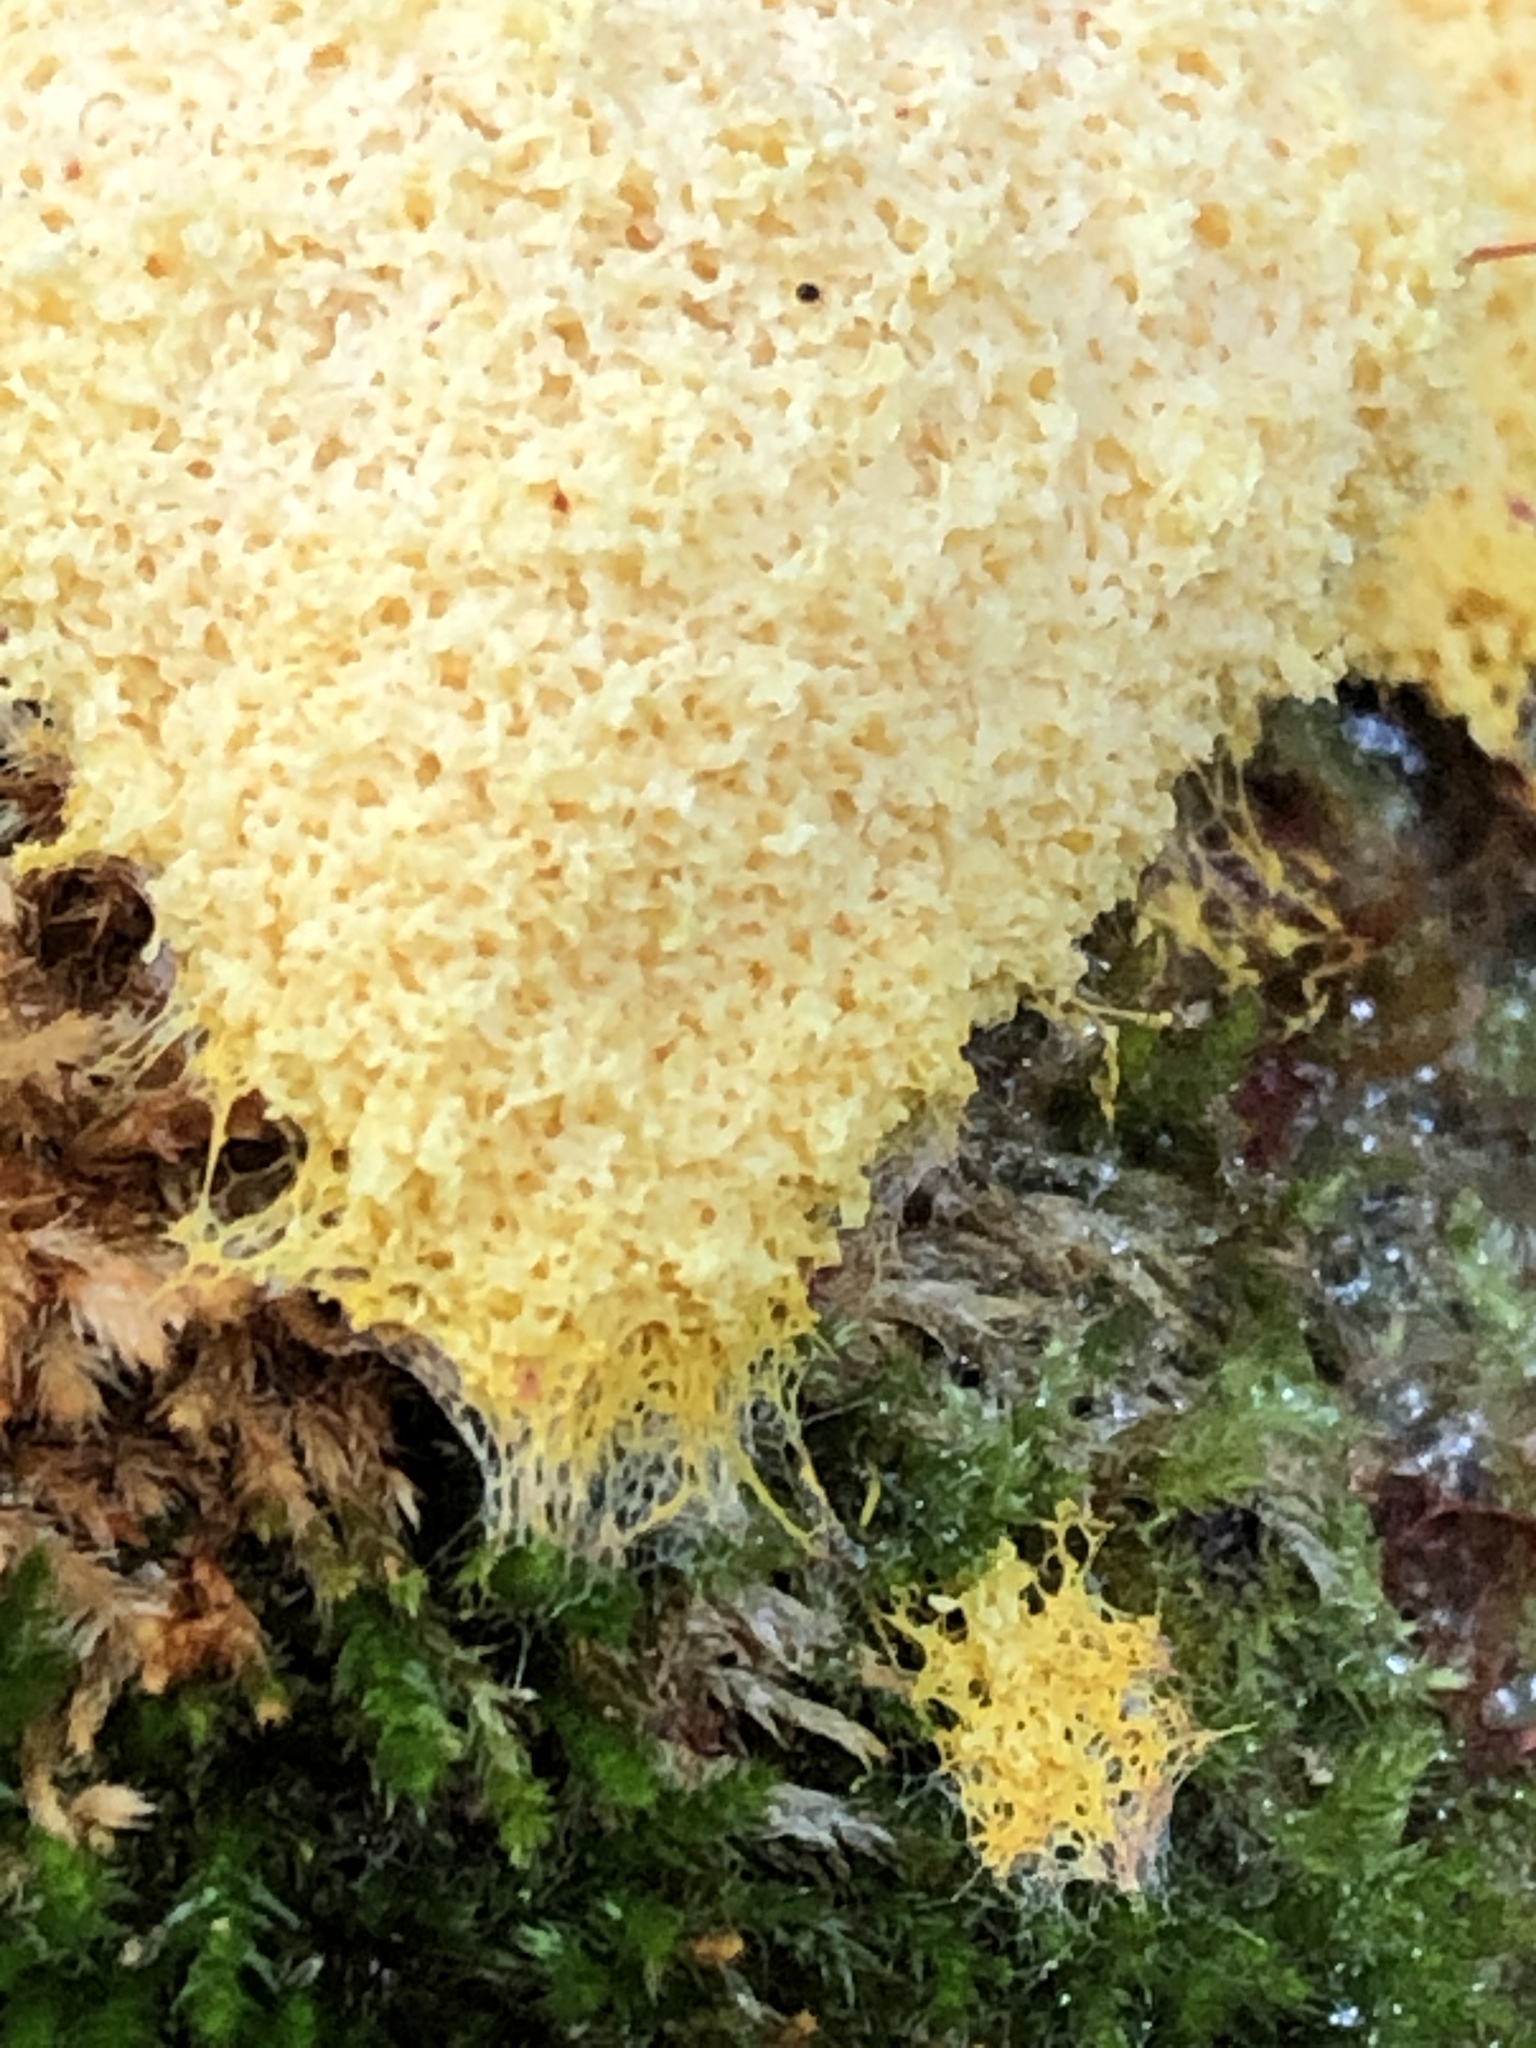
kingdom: Protozoa
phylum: Mycetozoa
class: Myxomycetes
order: Physarales
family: Physaraceae
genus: Fuligo
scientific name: Fuligo septica
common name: Dog vomit slime mold
